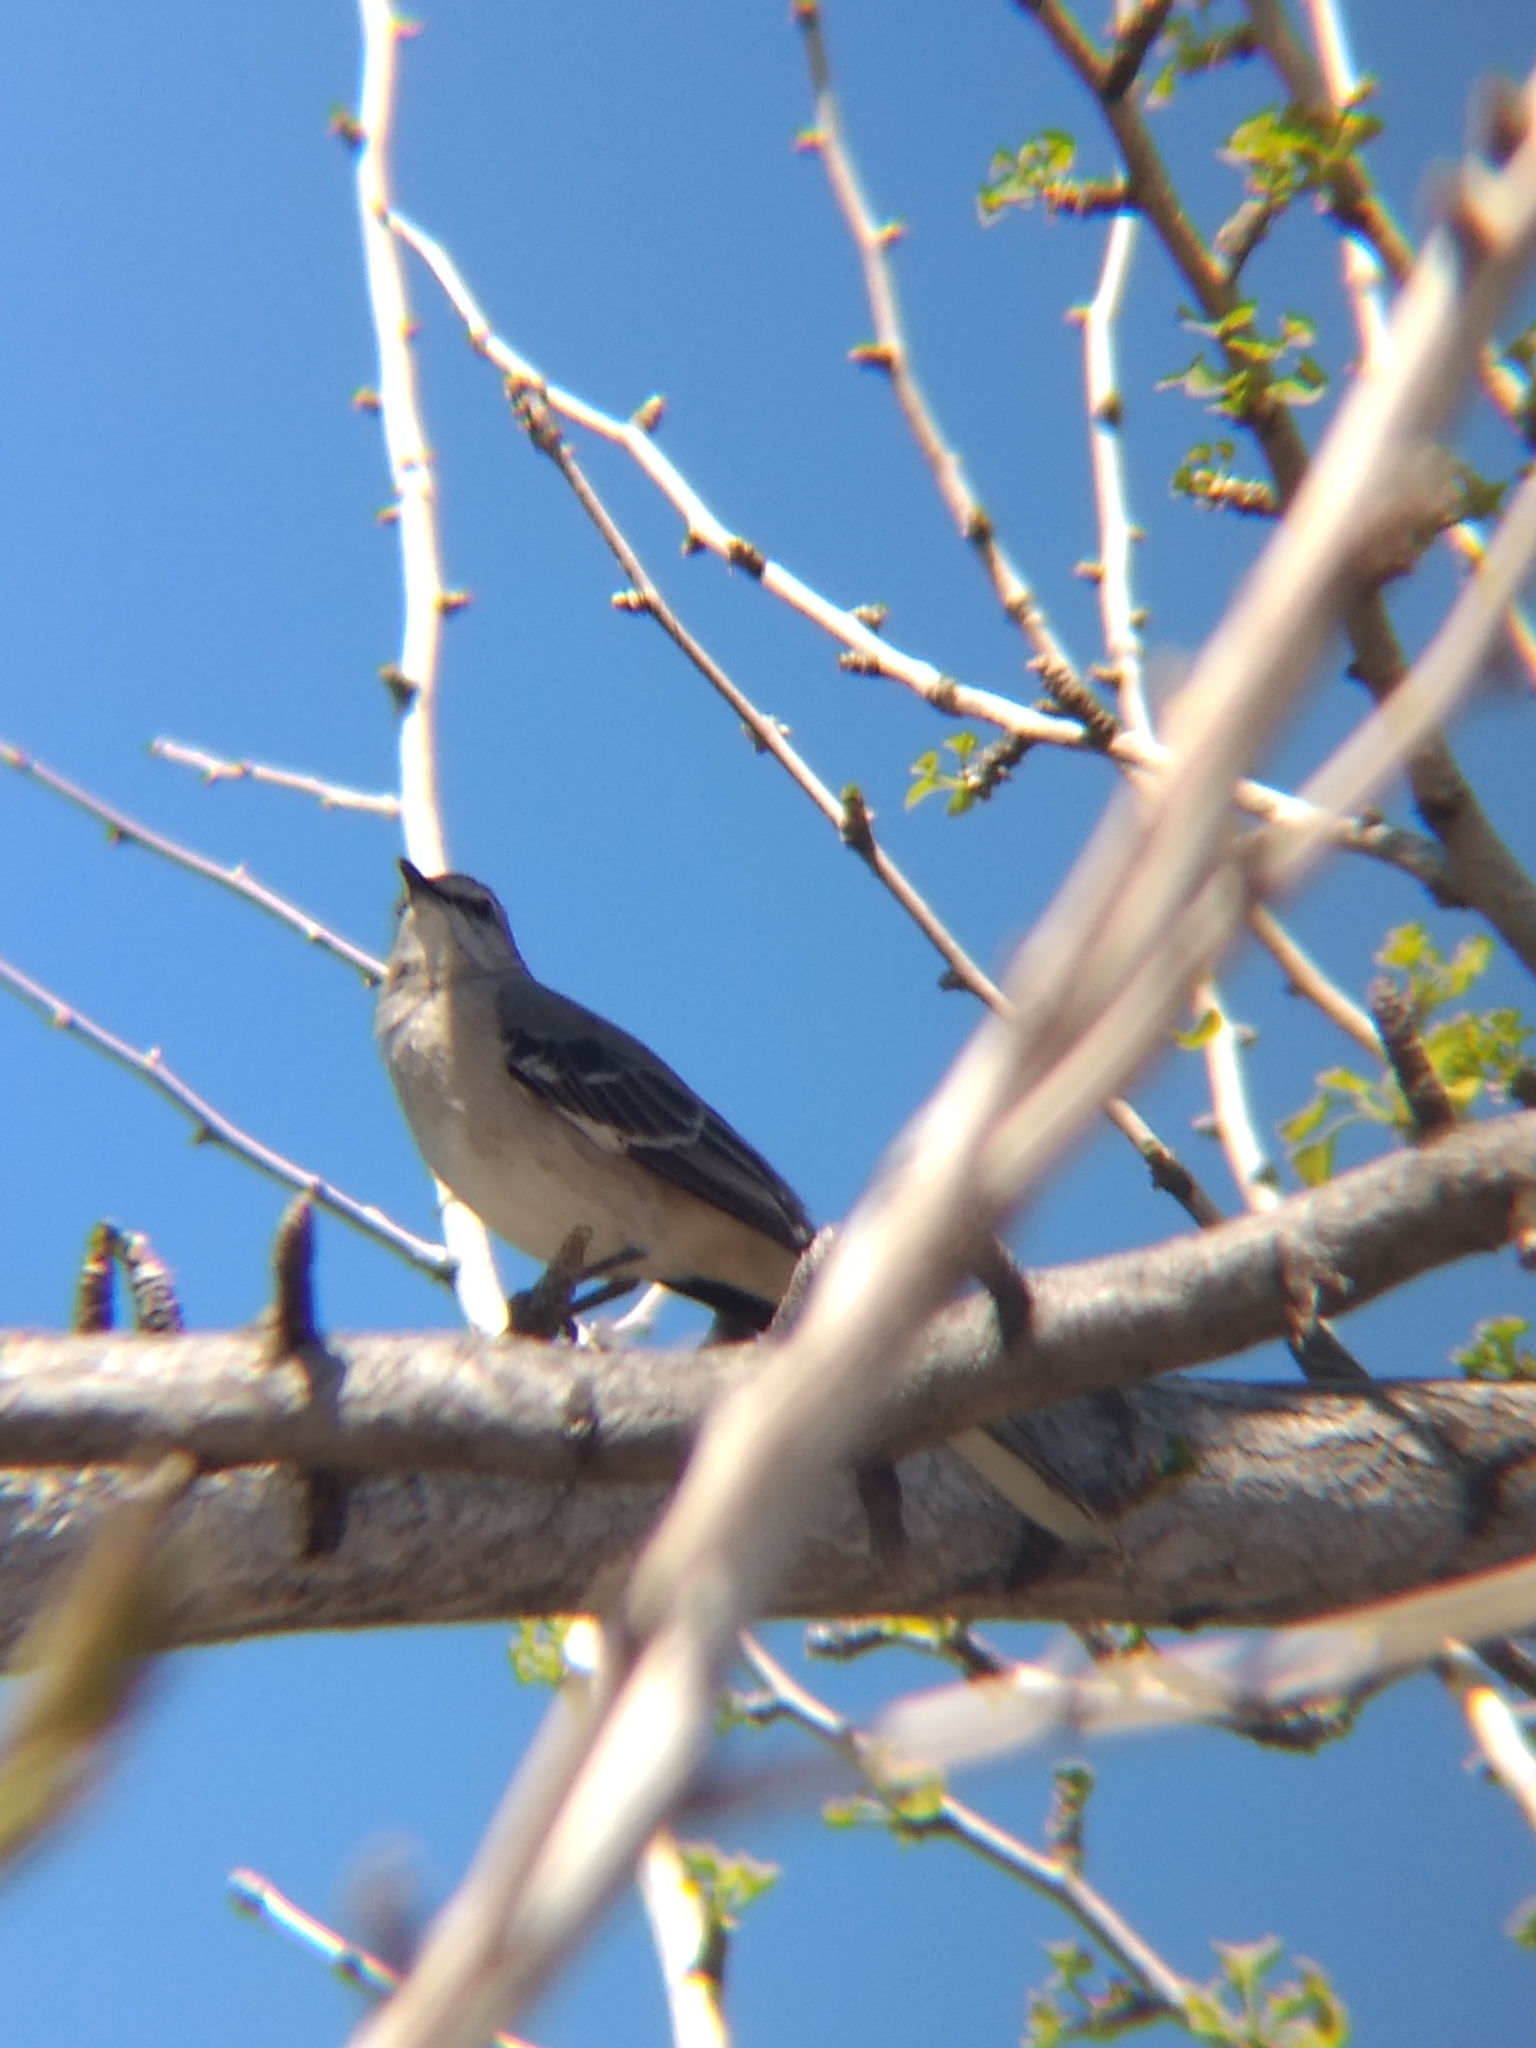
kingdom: Animalia
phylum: Chordata
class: Aves
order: Passeriformes
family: Mimidae
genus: Mimus
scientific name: Mimus polyglottos
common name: Northern mockingbird
